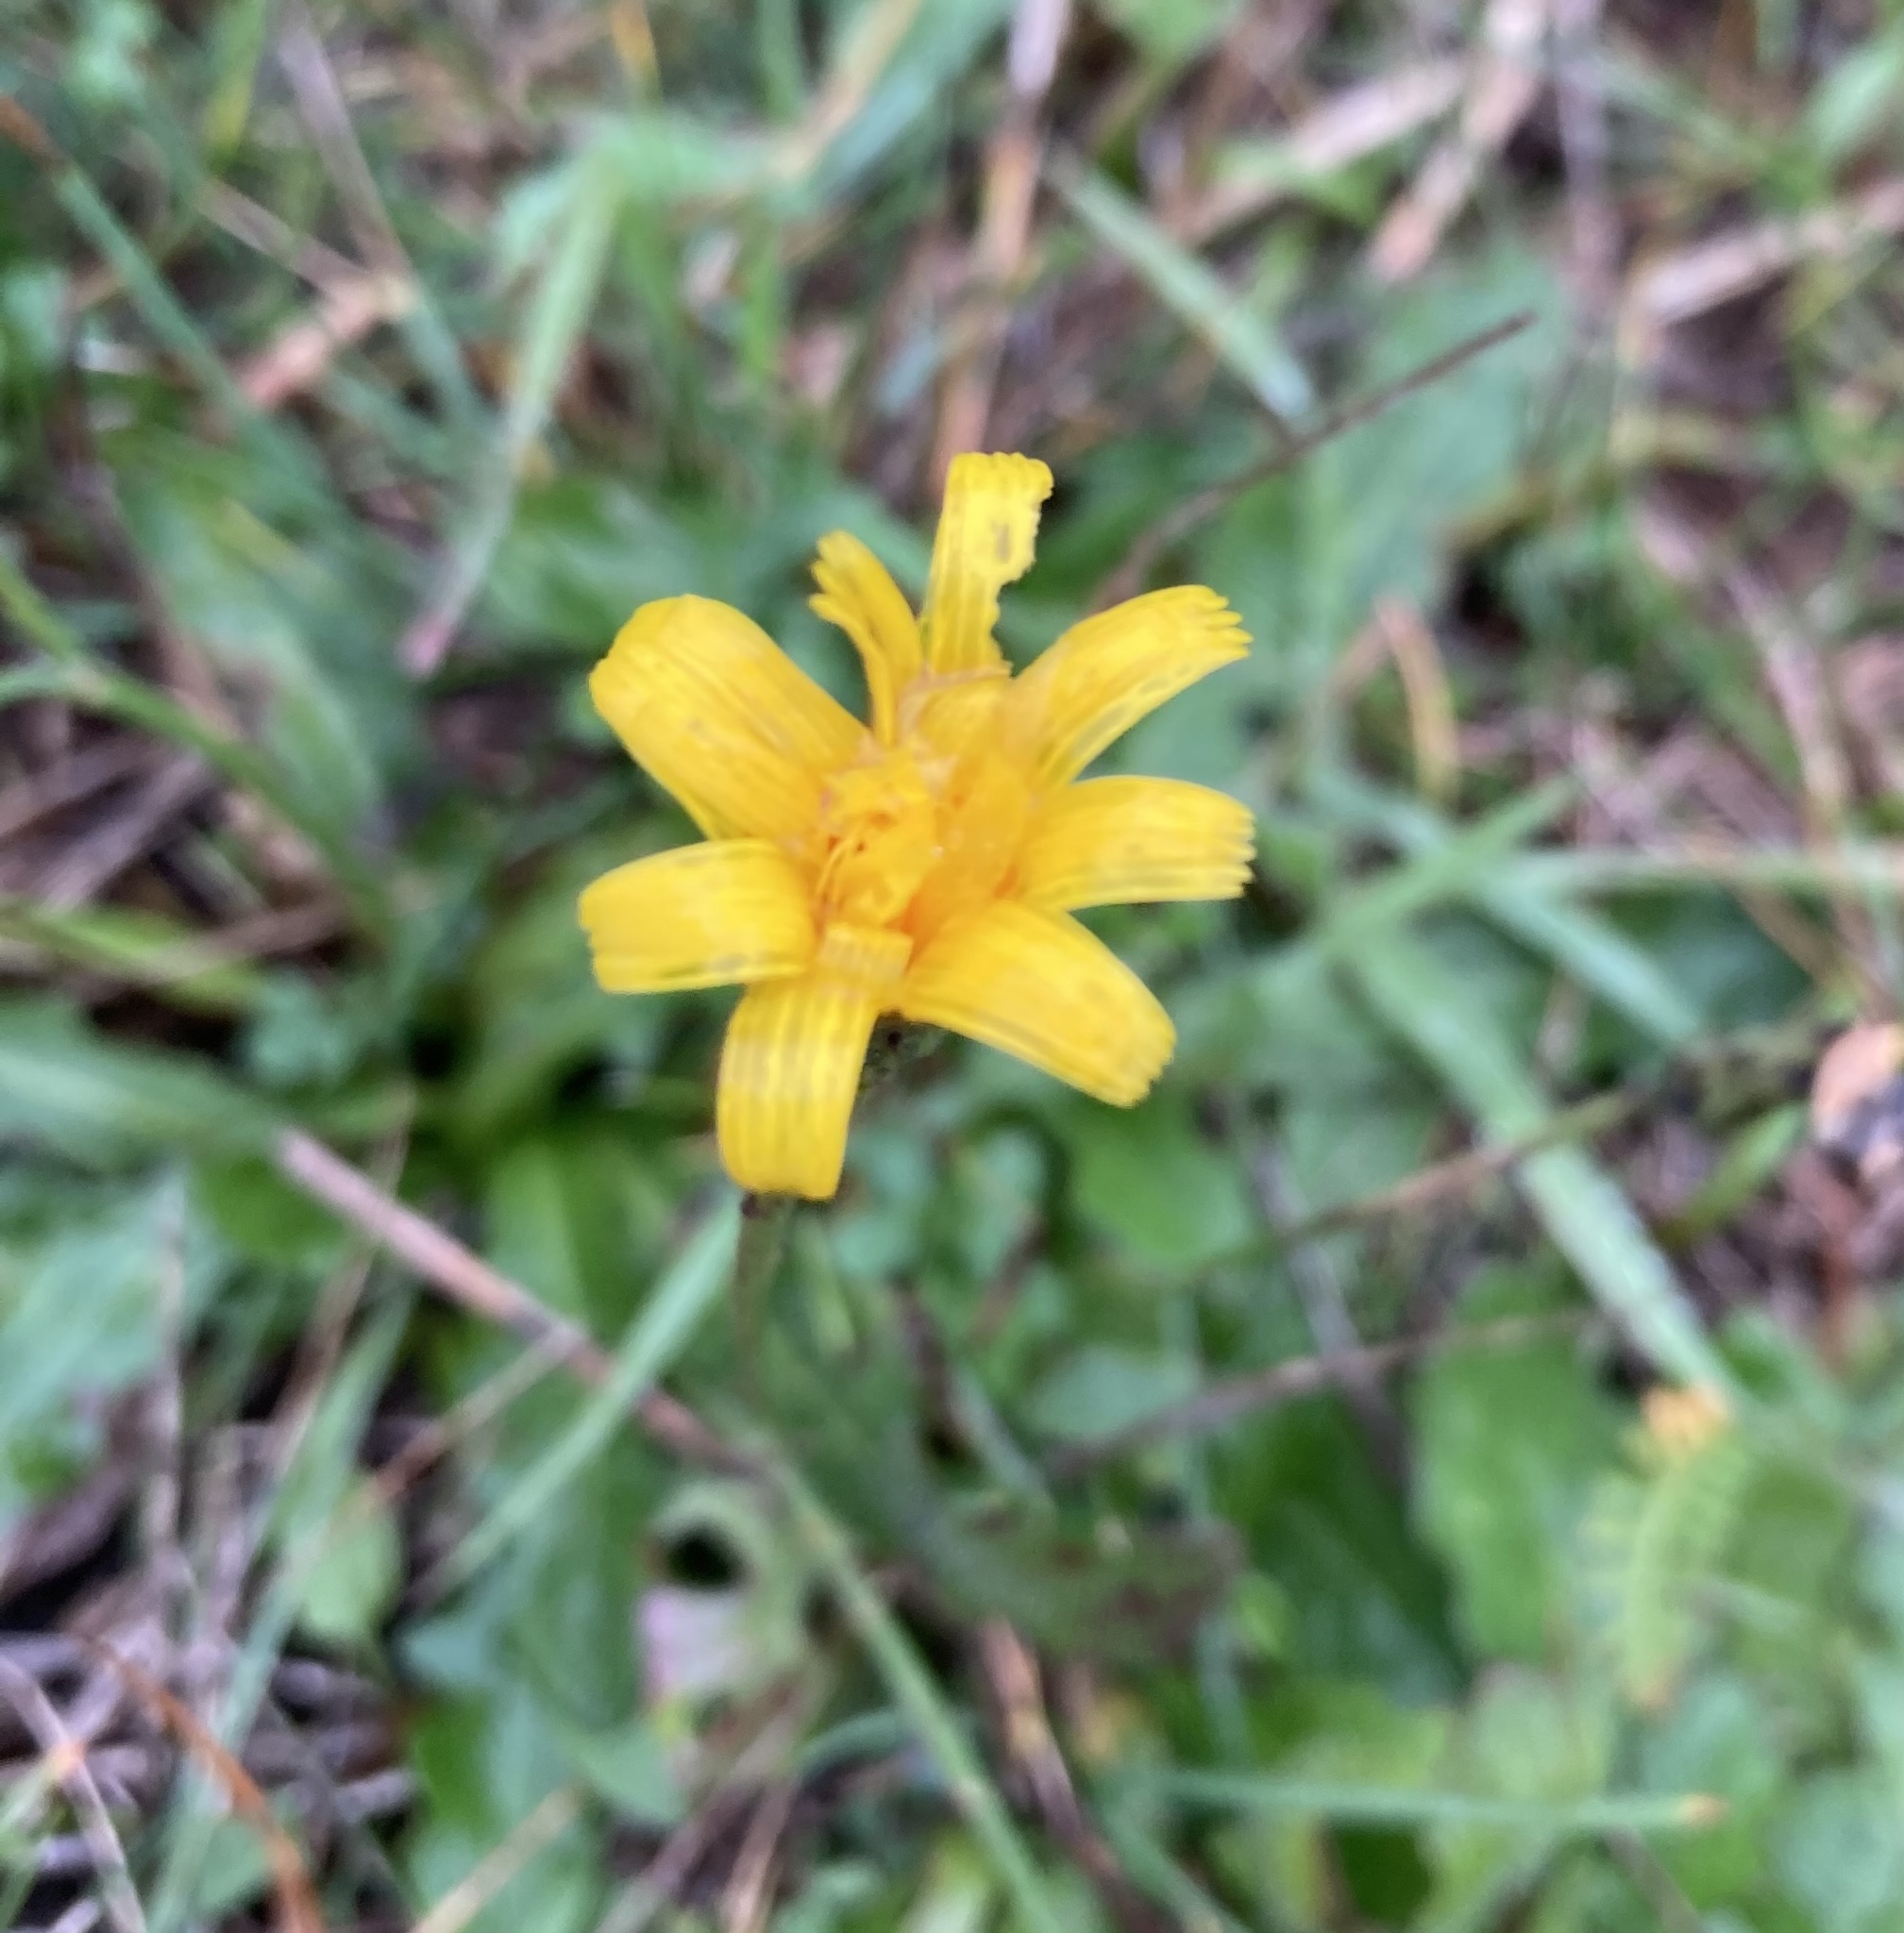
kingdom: Plantae
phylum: Tracheophyta
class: Magnoliopsida
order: Asterales
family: Asteraceae
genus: Hypochaeris
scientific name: Hypochaeris radicata
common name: Flatweed
